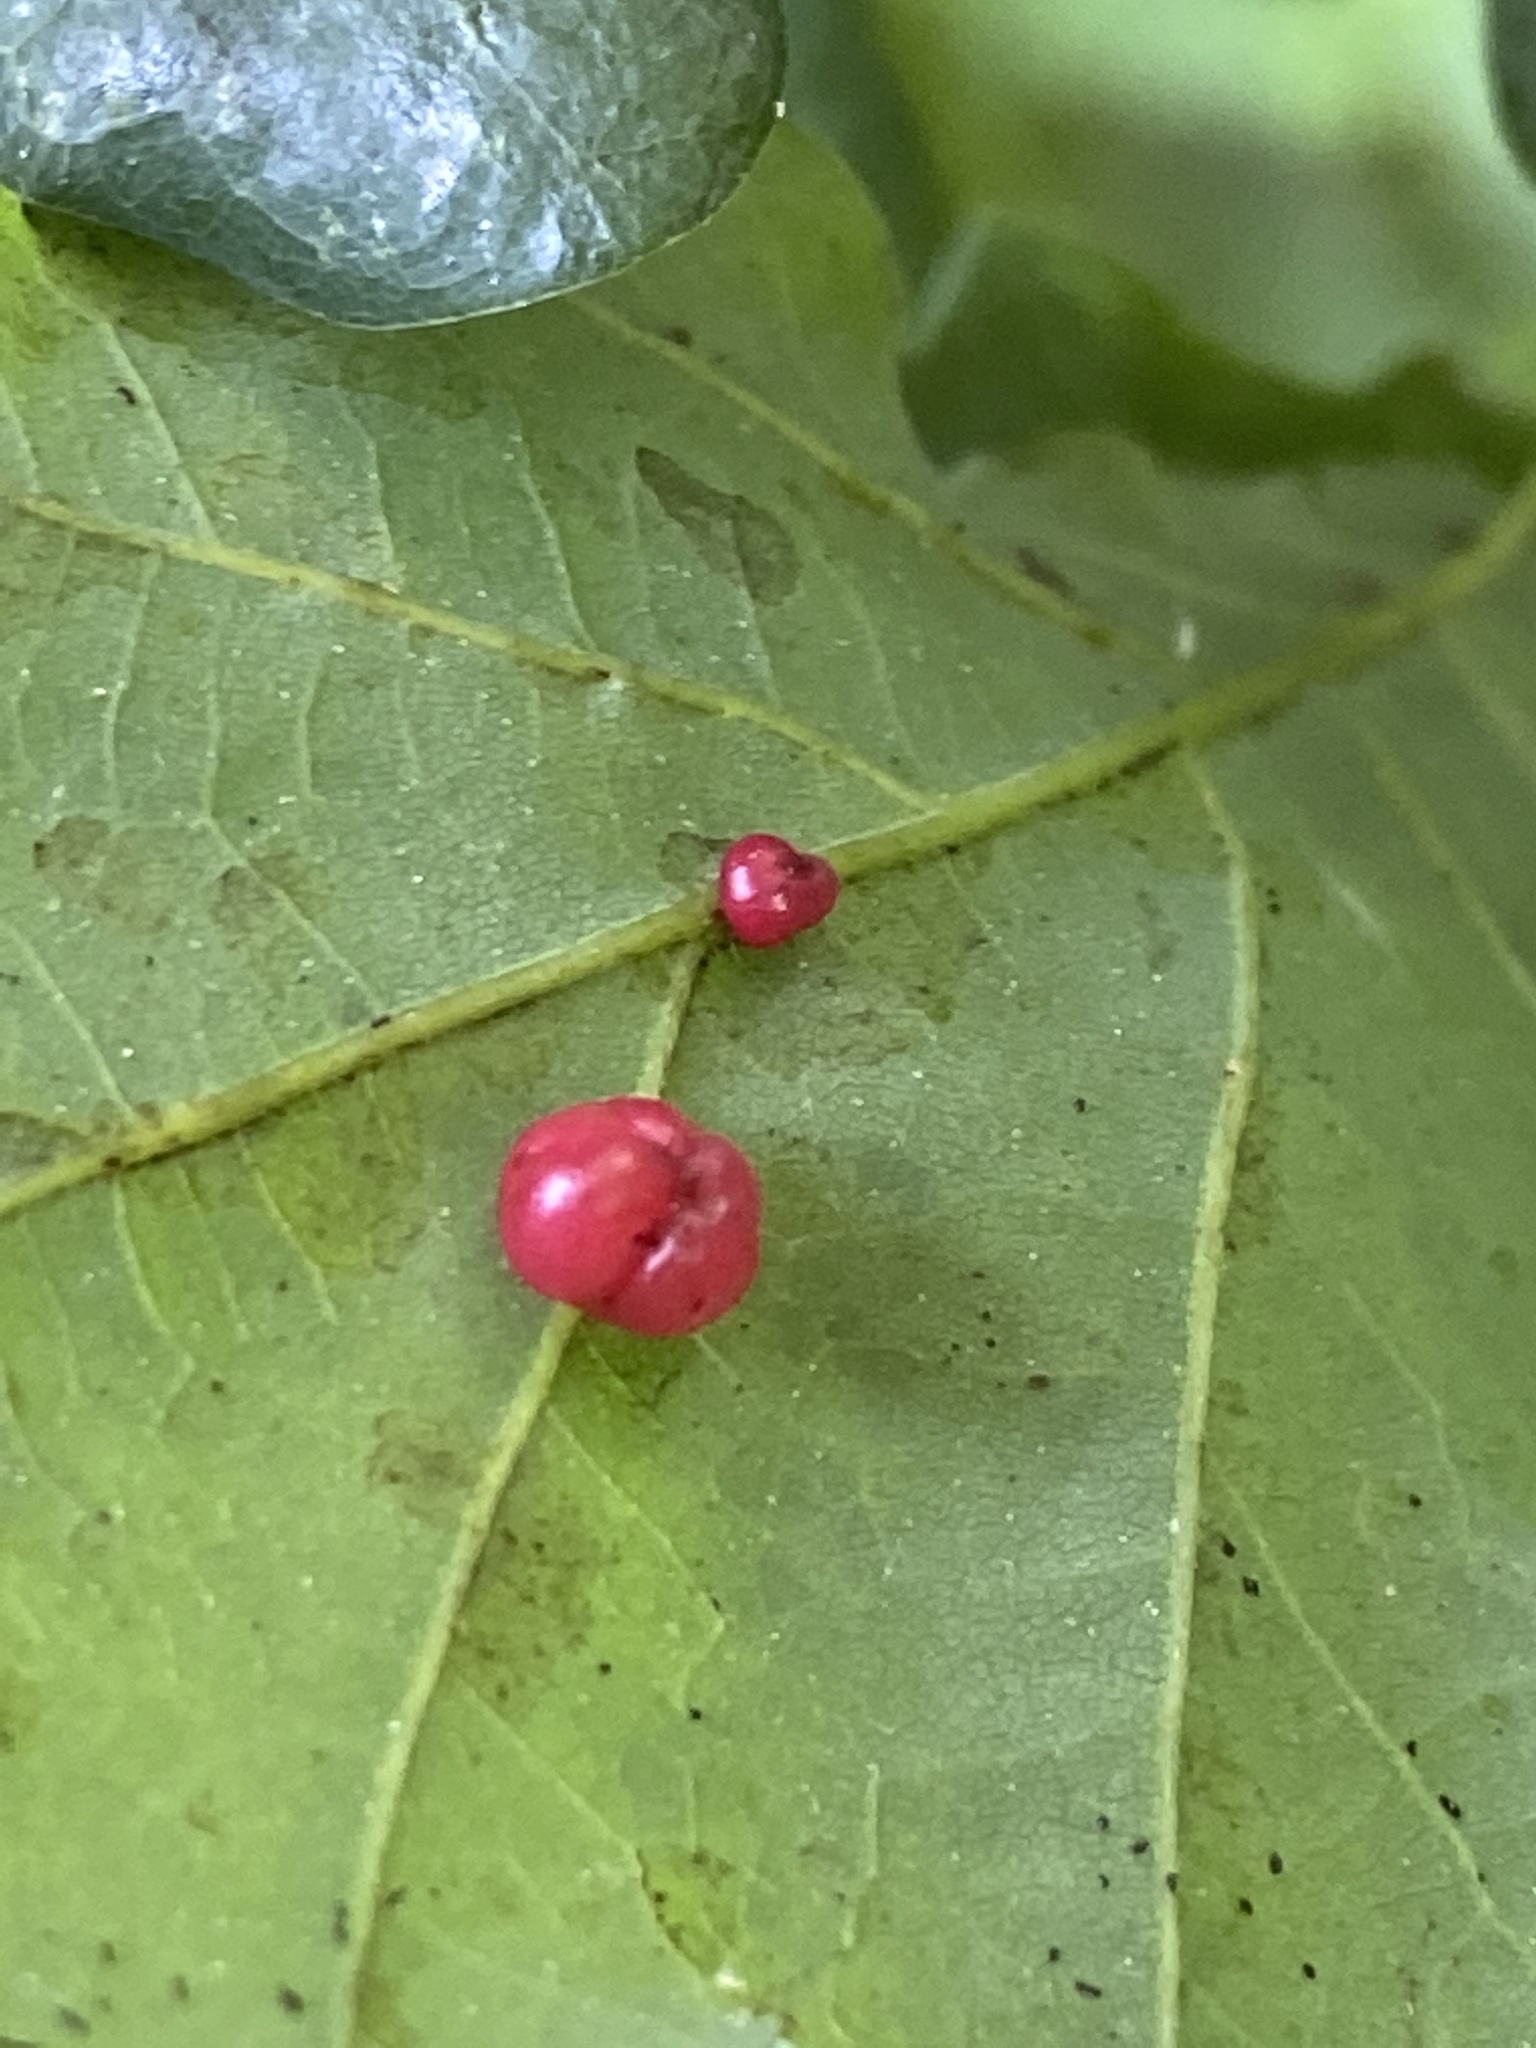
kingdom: Animalia
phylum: Arthropoda
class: Insecta
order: Hymenoptera
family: Cynipidae
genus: Cynips
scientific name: Cynips divisa
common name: Red currant gall
